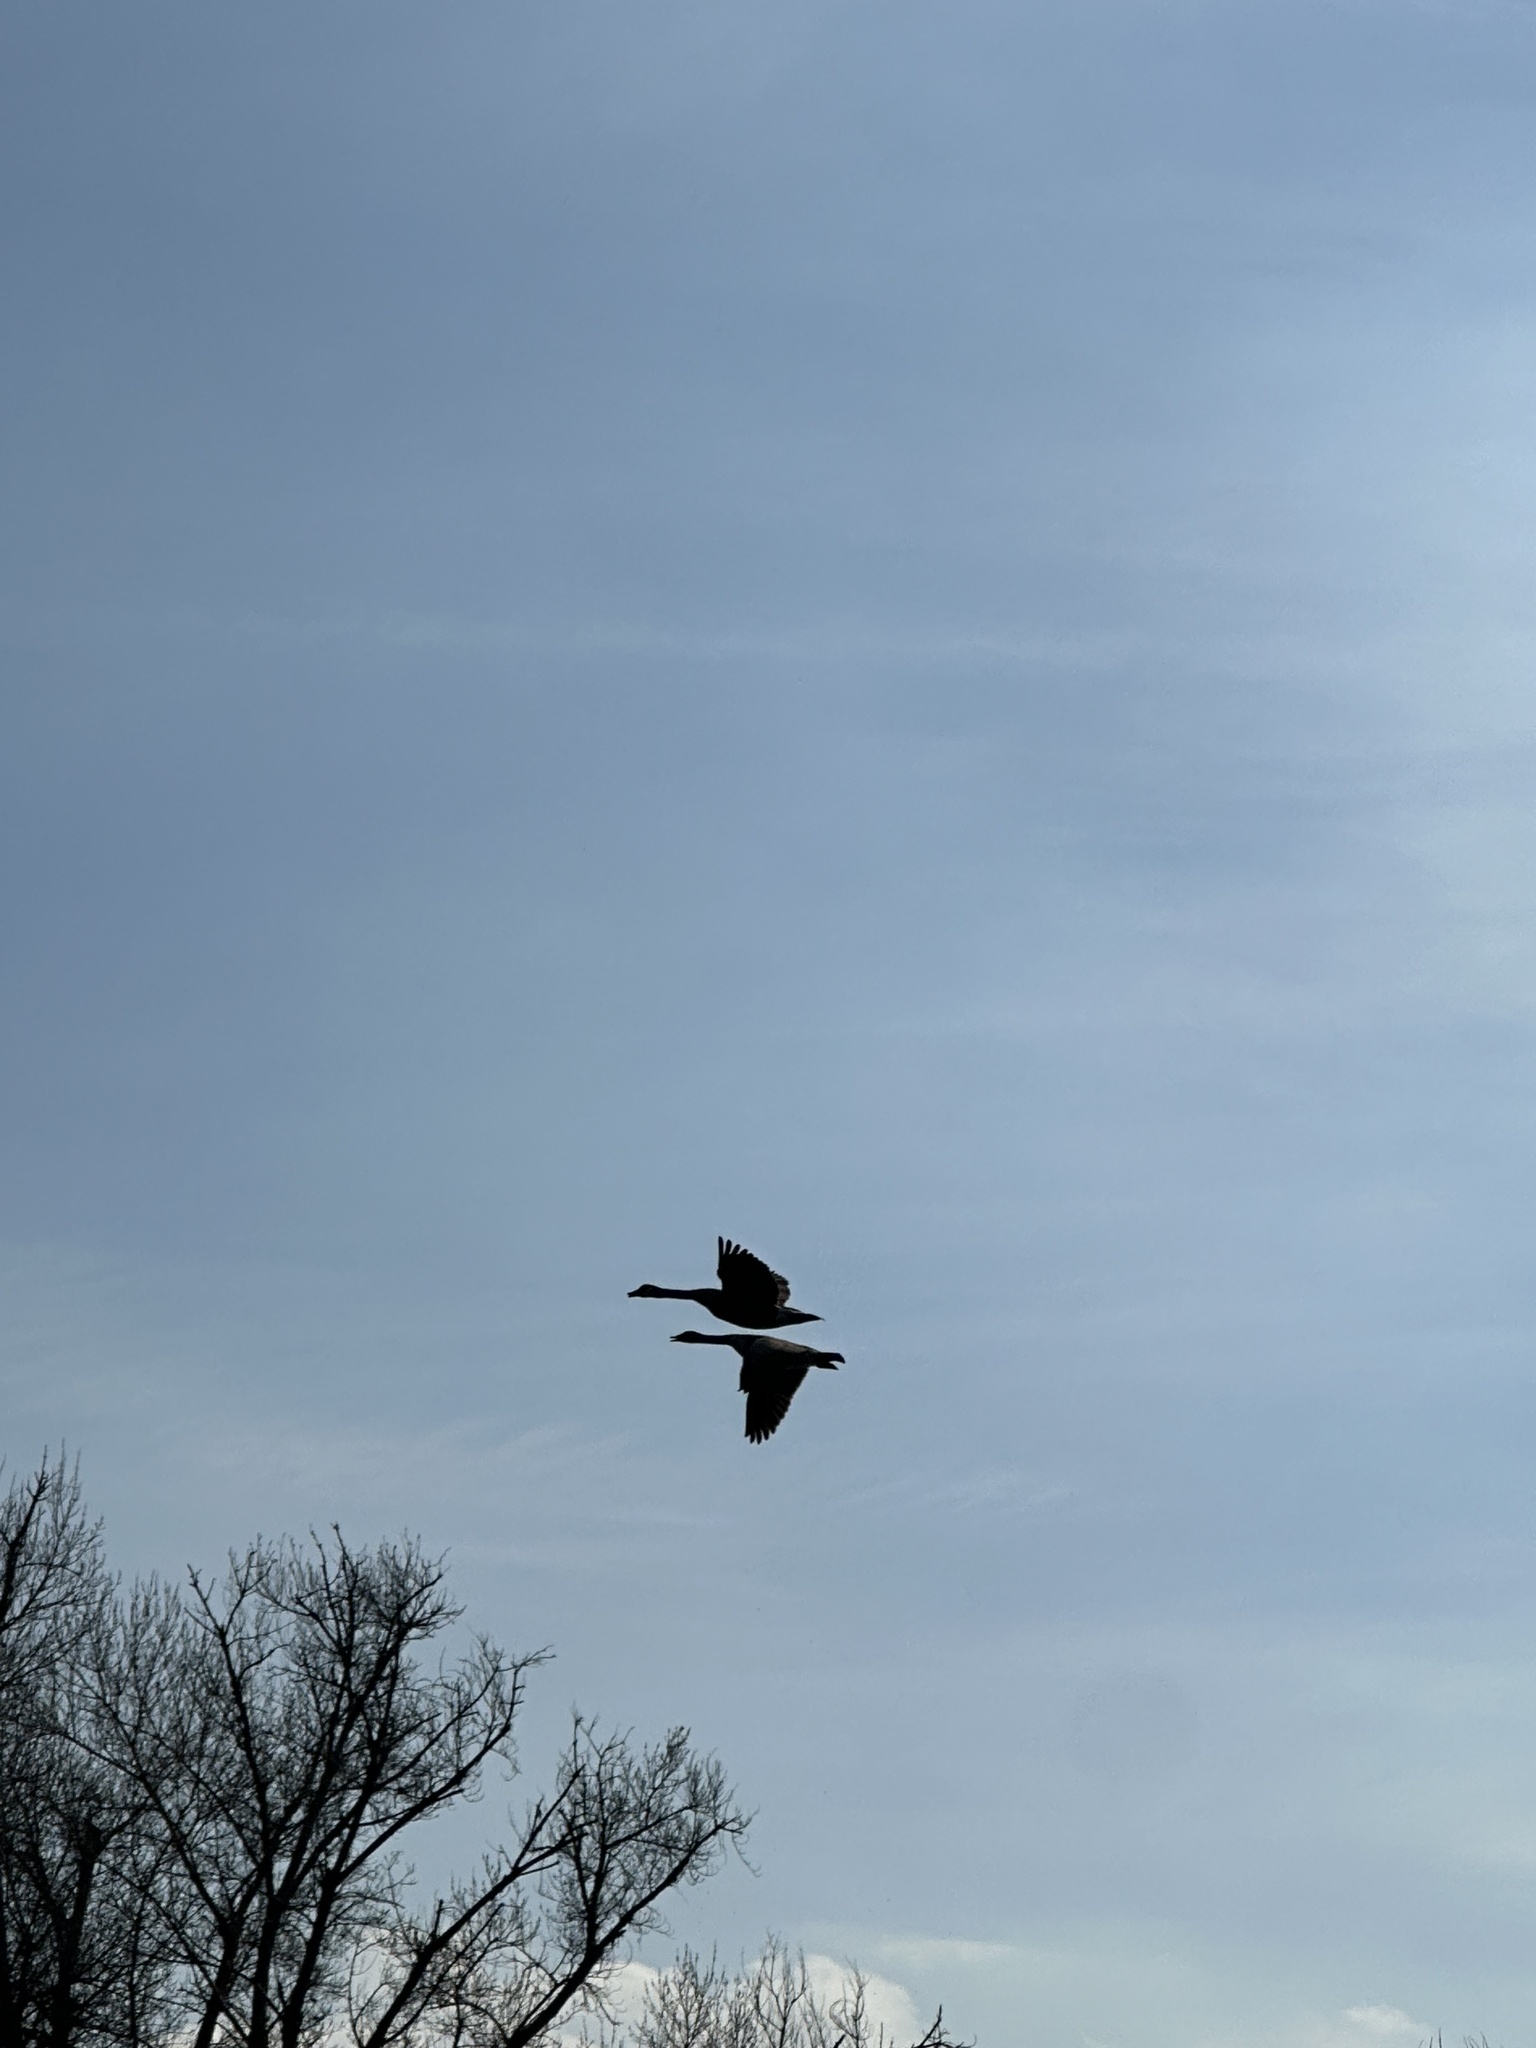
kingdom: Animalia
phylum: Chordata
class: Aves
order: Anseriformes
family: Anatidae
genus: Branta
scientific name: Branta canadensis
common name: Canada goose
